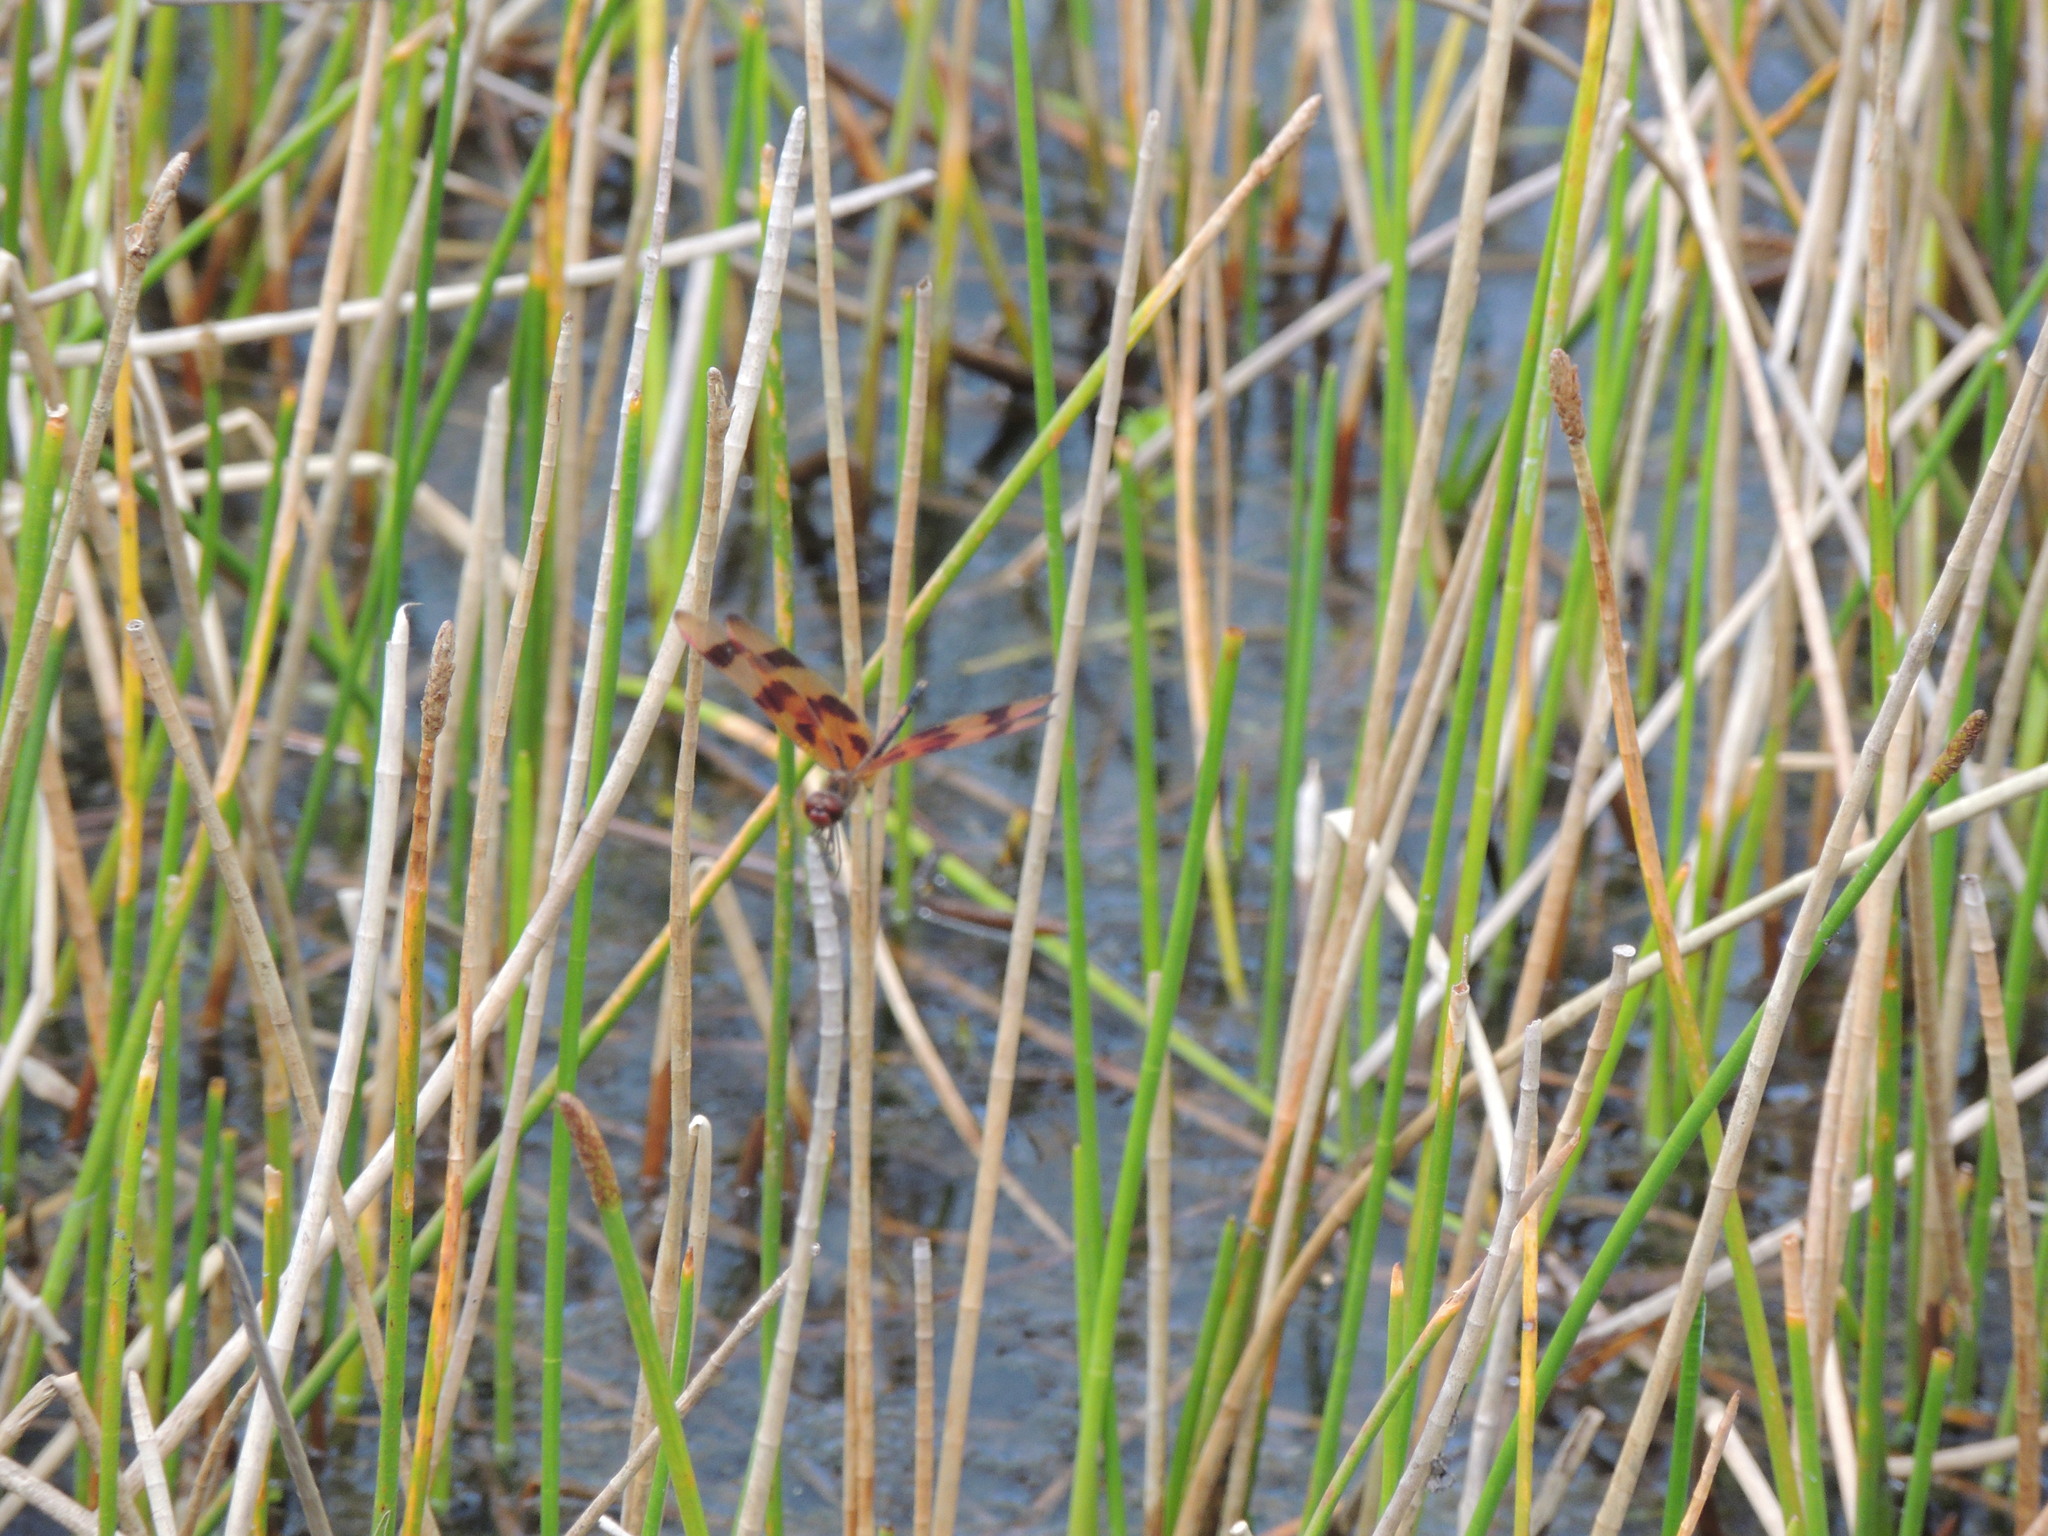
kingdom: Animalia
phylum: Arthropoda
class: Insecta
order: Odonata
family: Libellulidae
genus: Celithemis
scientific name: Celithemis eponina
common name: Halloween pennant
